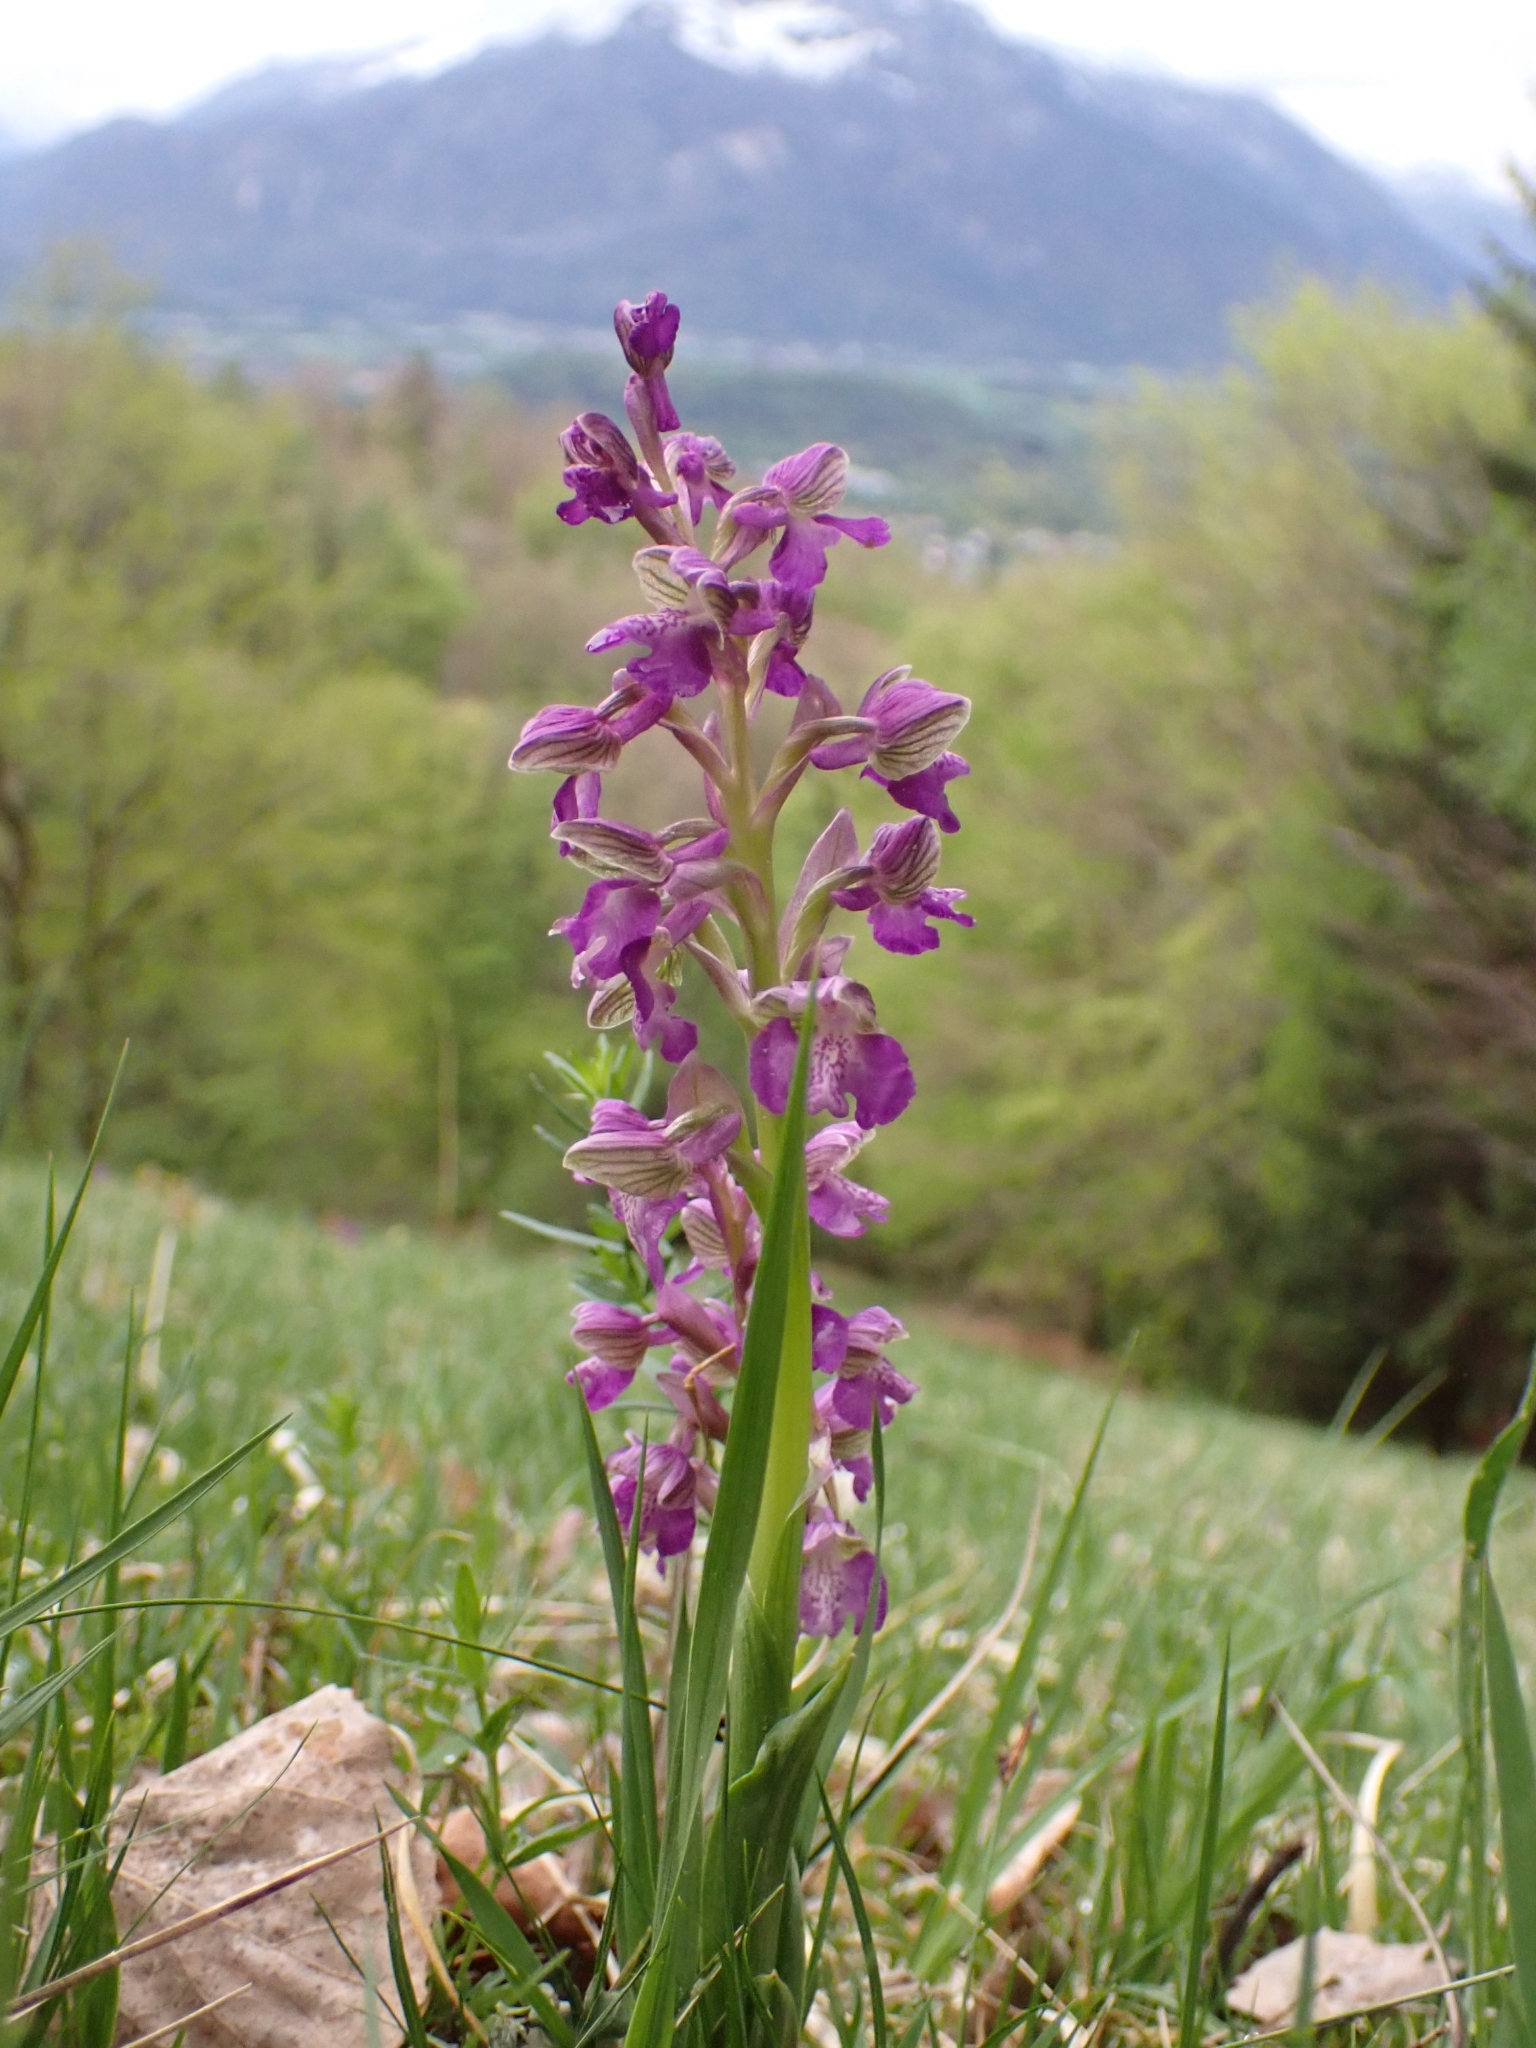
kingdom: Plantae
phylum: Tracheophyta
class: Liliopsida
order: Asparagales
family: Orchidaceae
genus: Anacamptis
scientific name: Anacamptis morio
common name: Green-winged orchid
